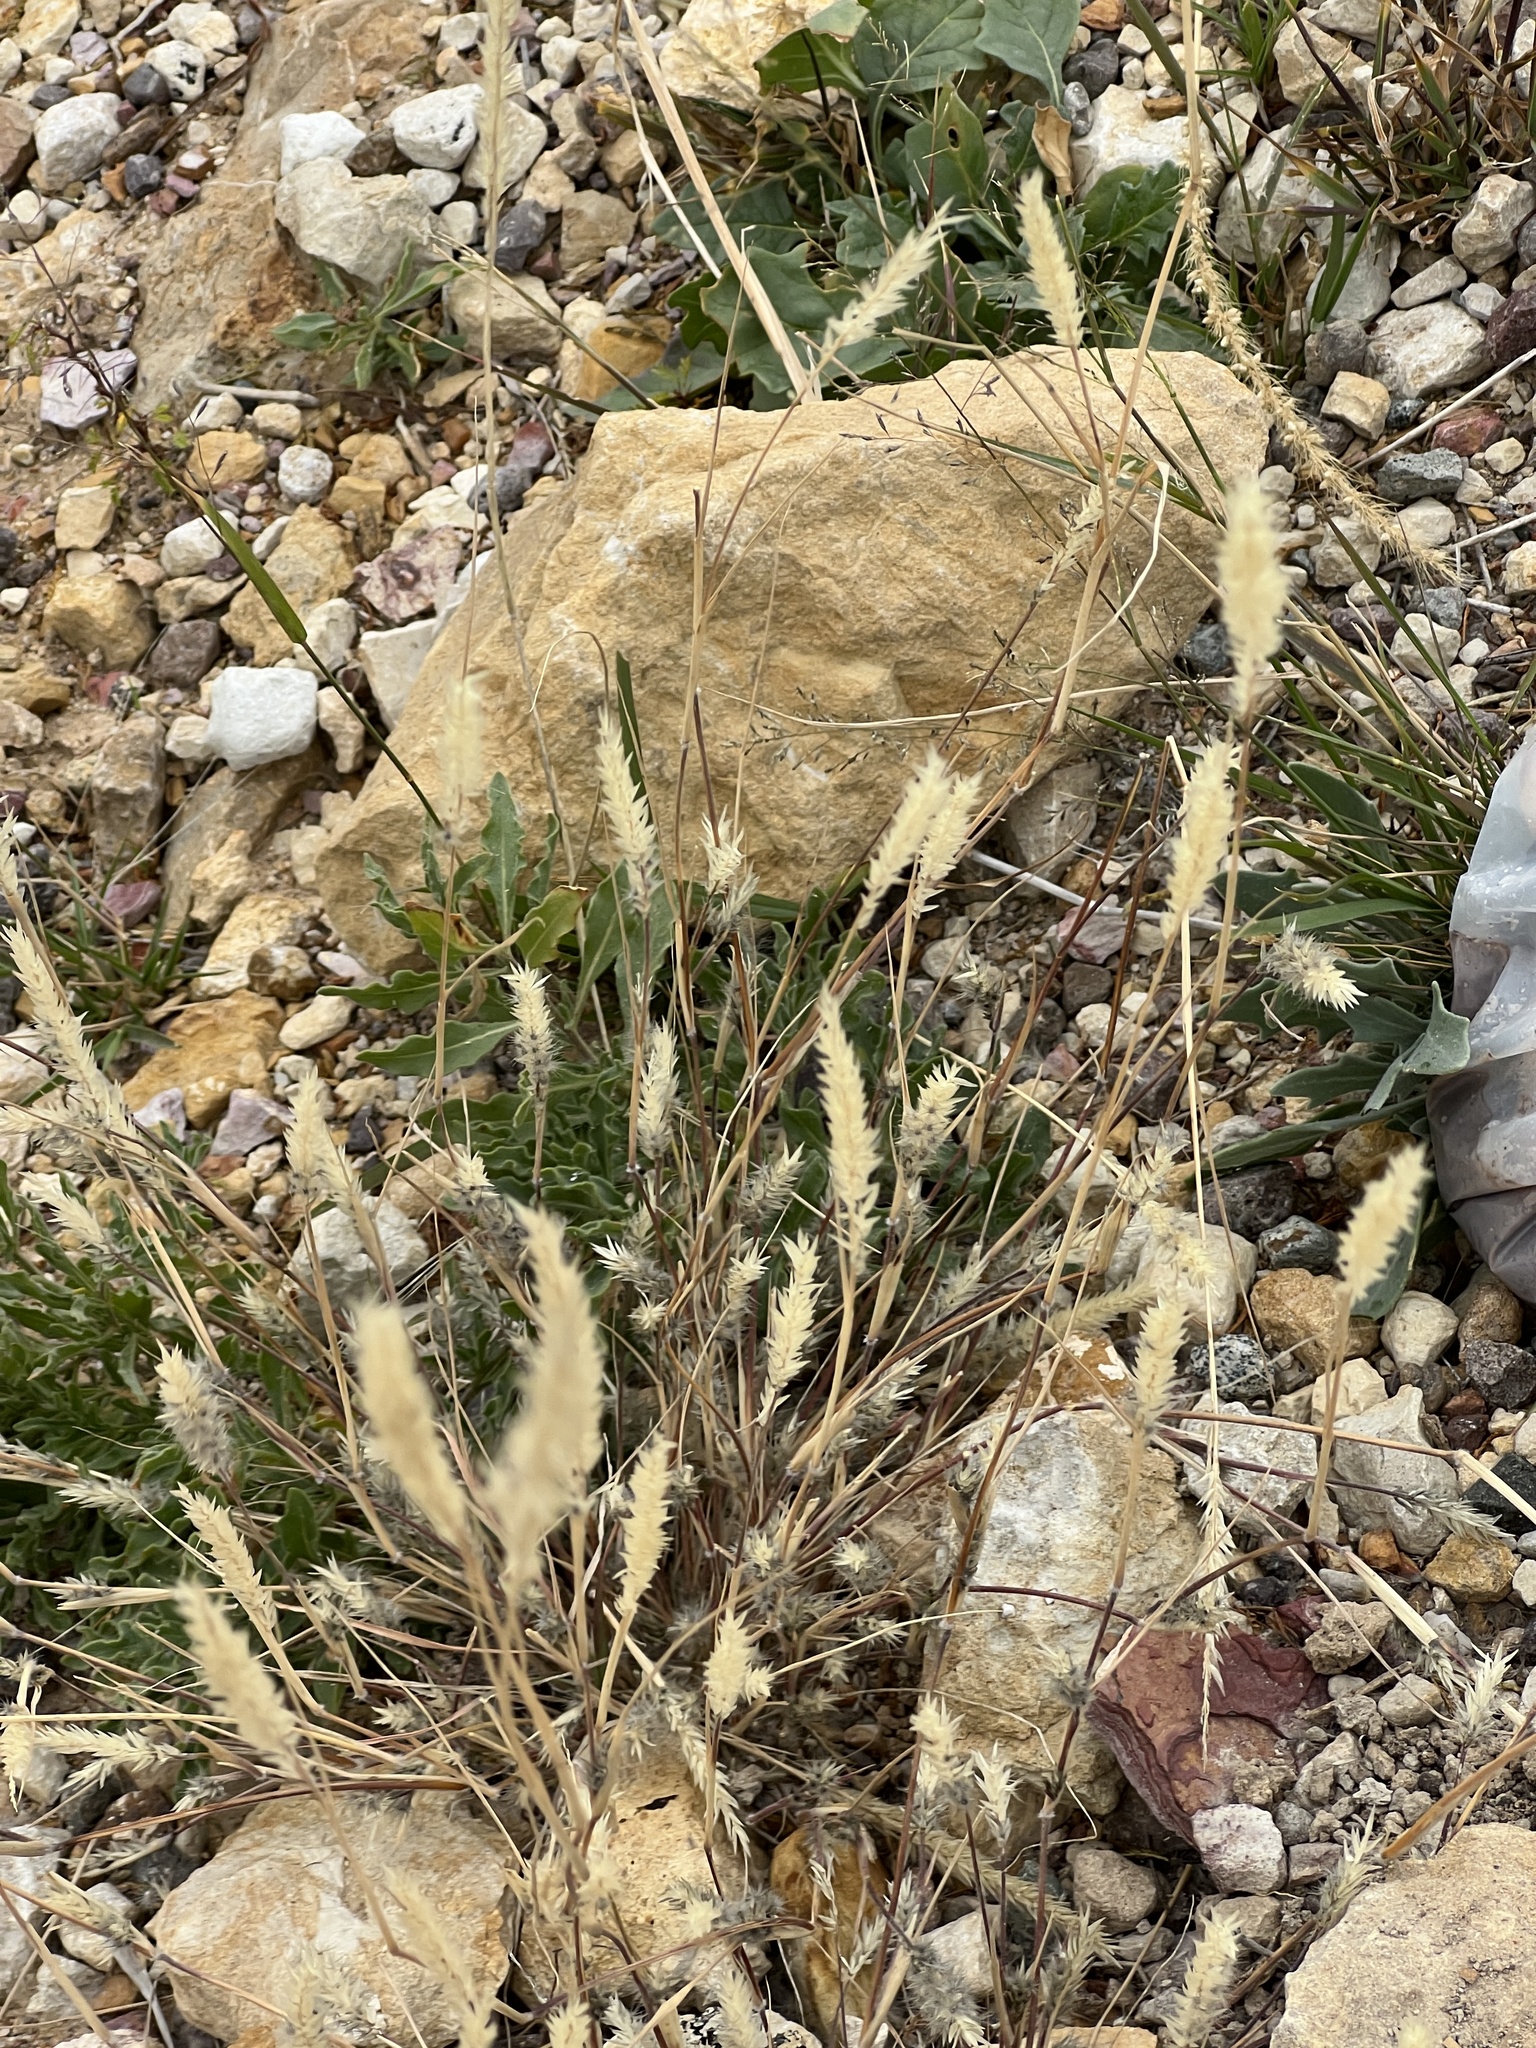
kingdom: Plantae
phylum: Tracheophyta
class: Magnoliopsida
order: Lamiales
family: Plantaginaceae
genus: Plantago
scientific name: Plantago patagonica
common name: Patagonia indian-wheat
